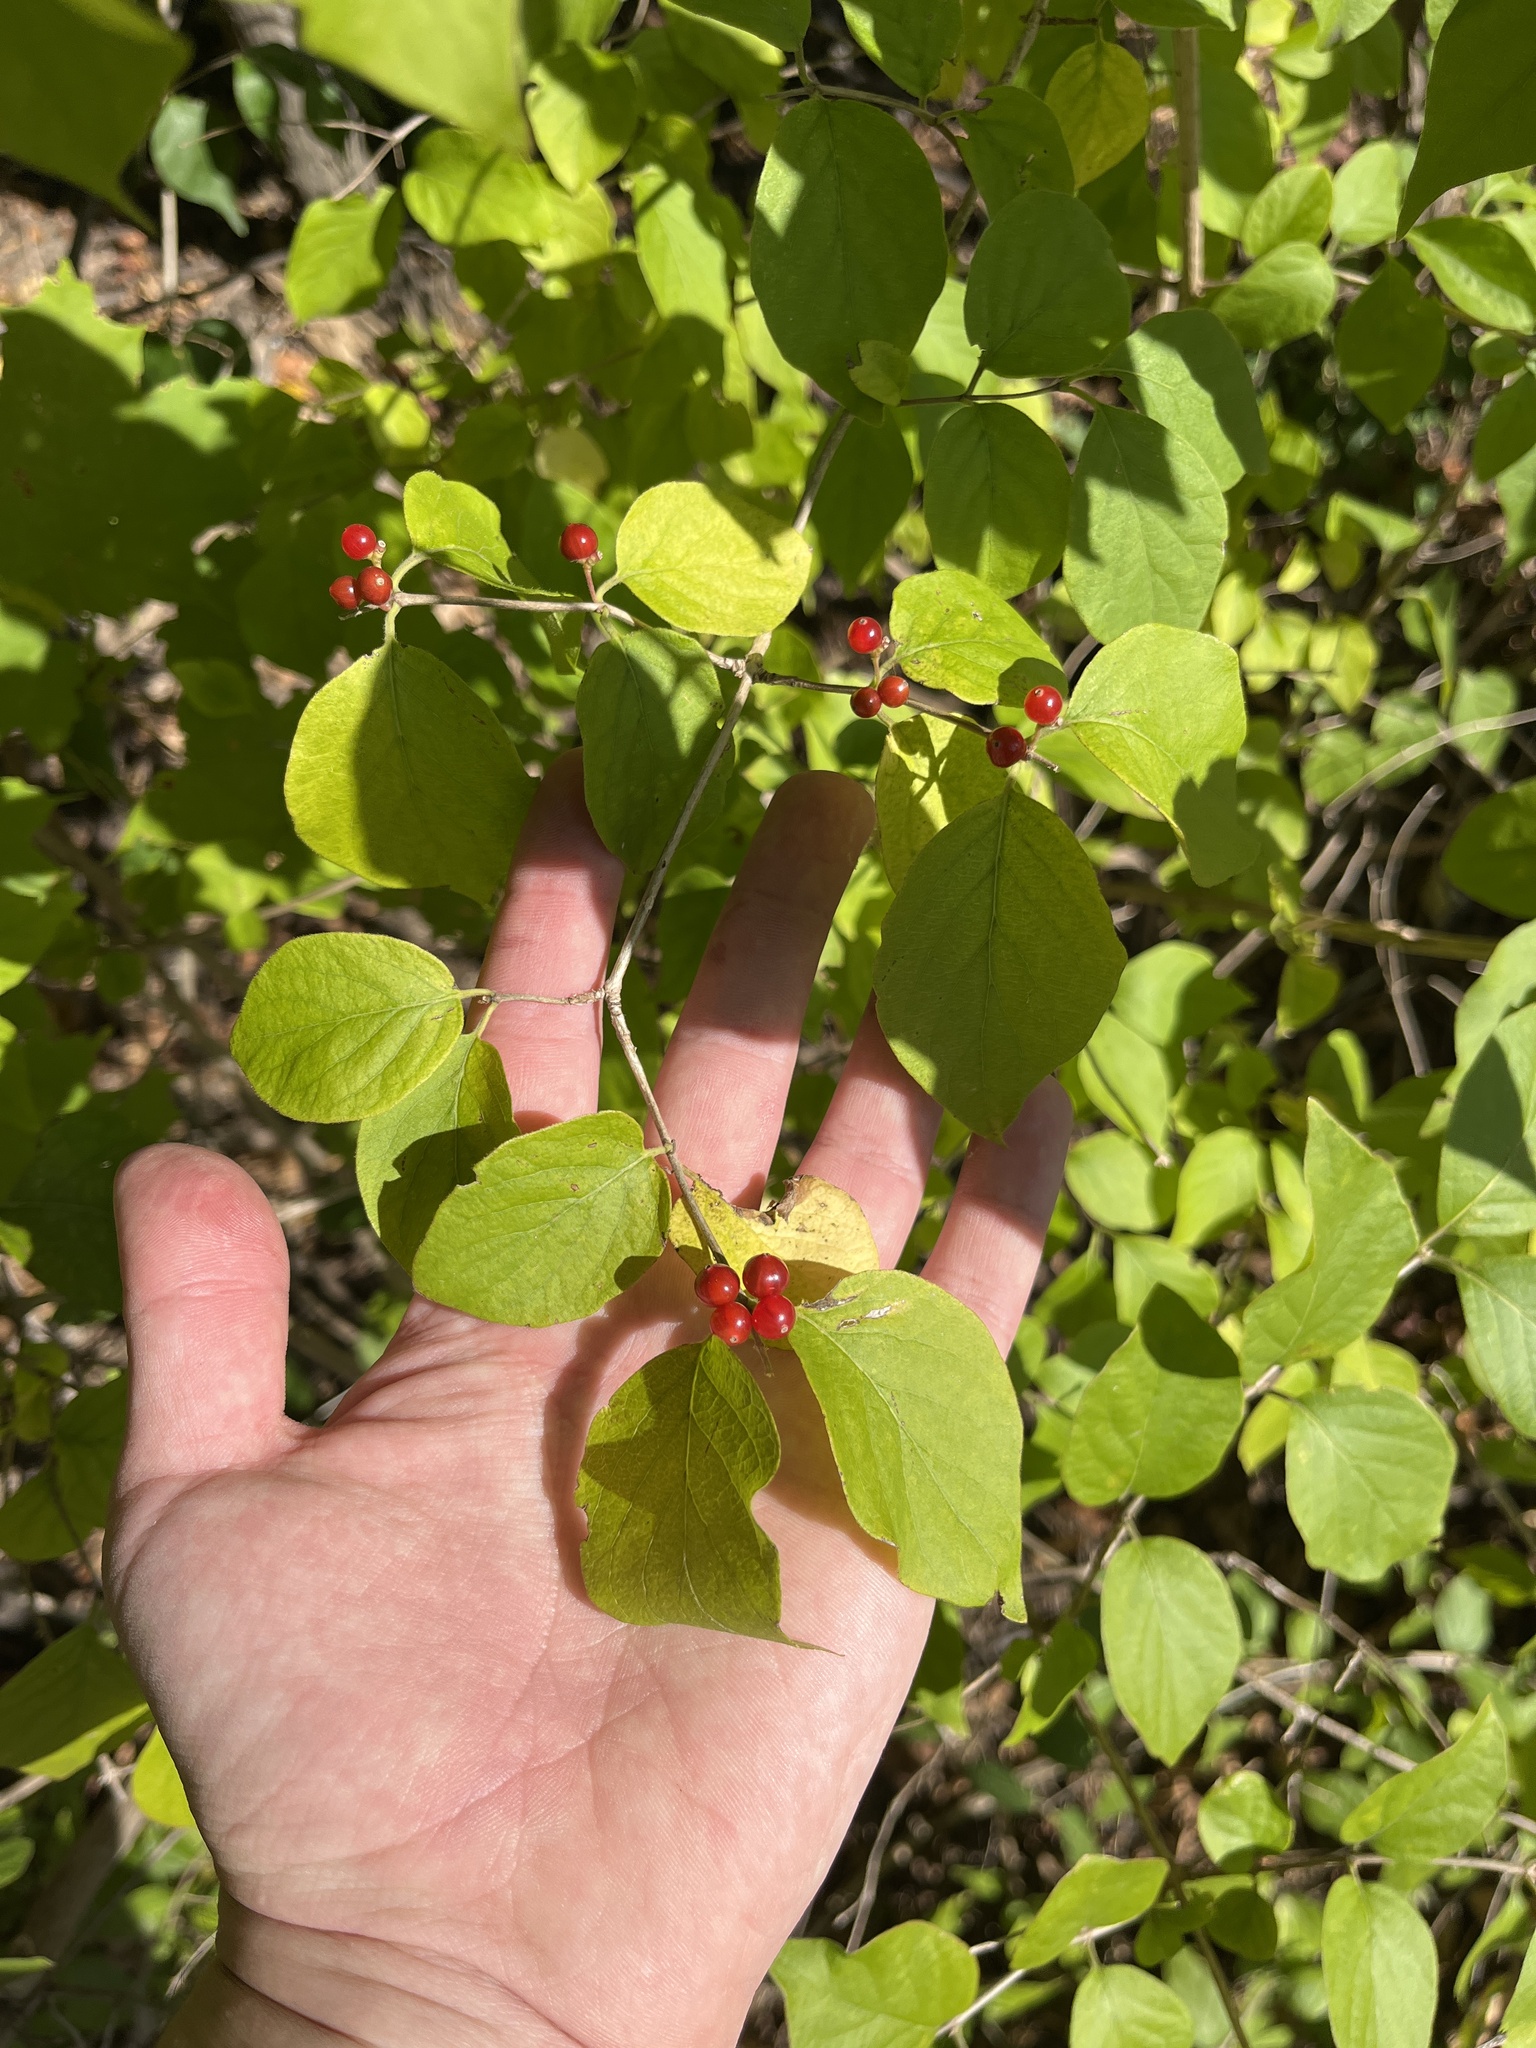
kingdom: Plantae
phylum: Tracheophyta
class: Magnoliopsida
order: Dipsacales
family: Caprifoliaceae
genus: Lonicera
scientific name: Lonicera maackii
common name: Amur honeysuckle
